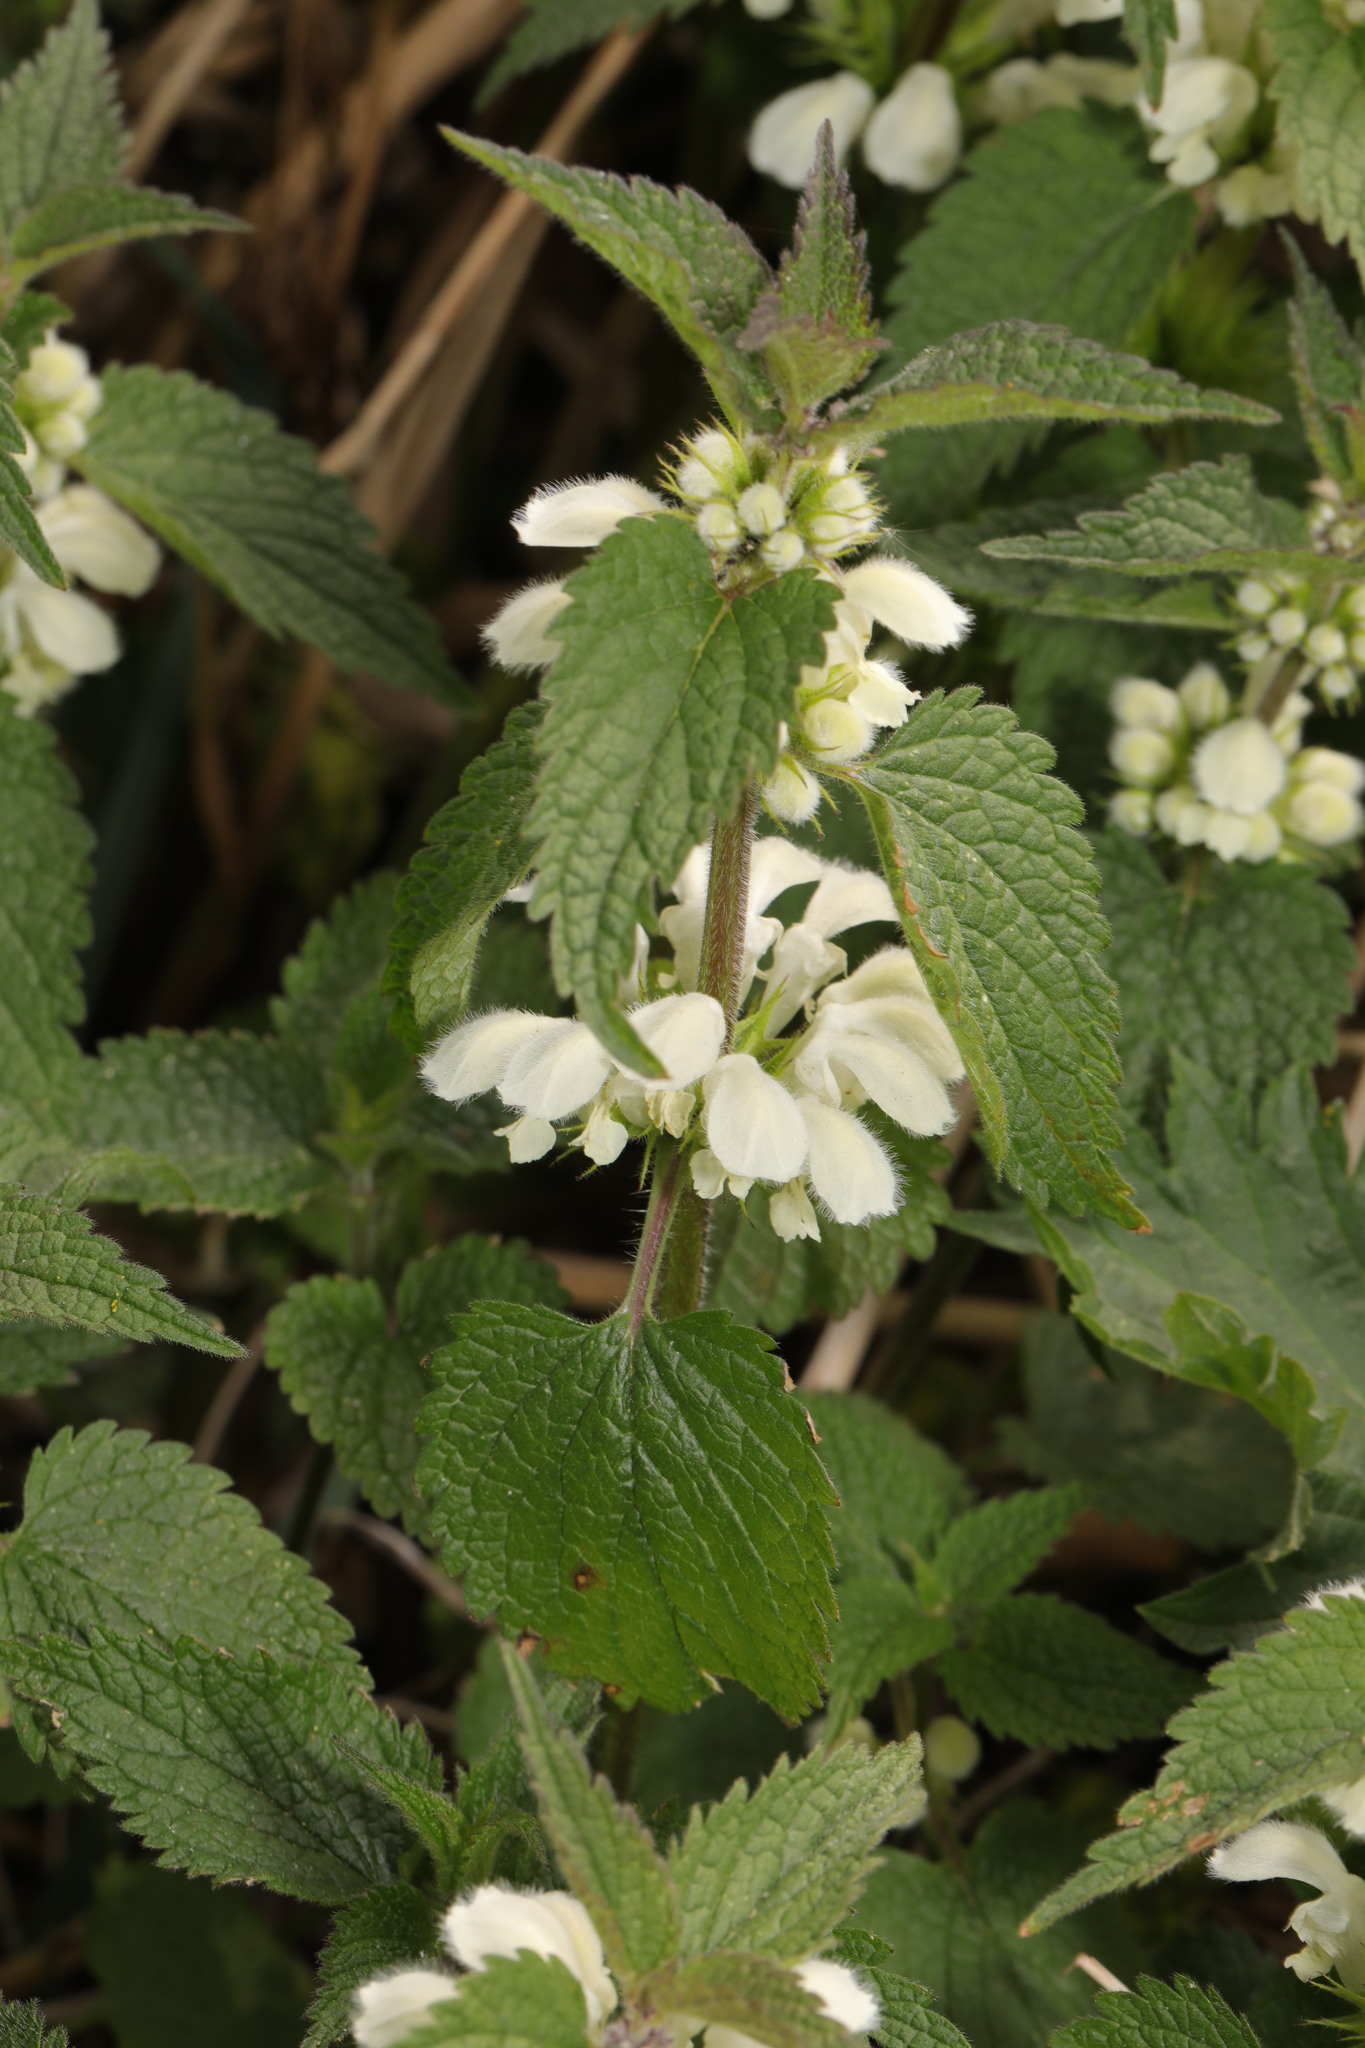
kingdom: Plantae
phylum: Tracheophyta
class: Magnoliopsida
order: Lamiales
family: Lamiaceae
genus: Lamium
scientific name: Lamium album
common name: White dead-nettle
